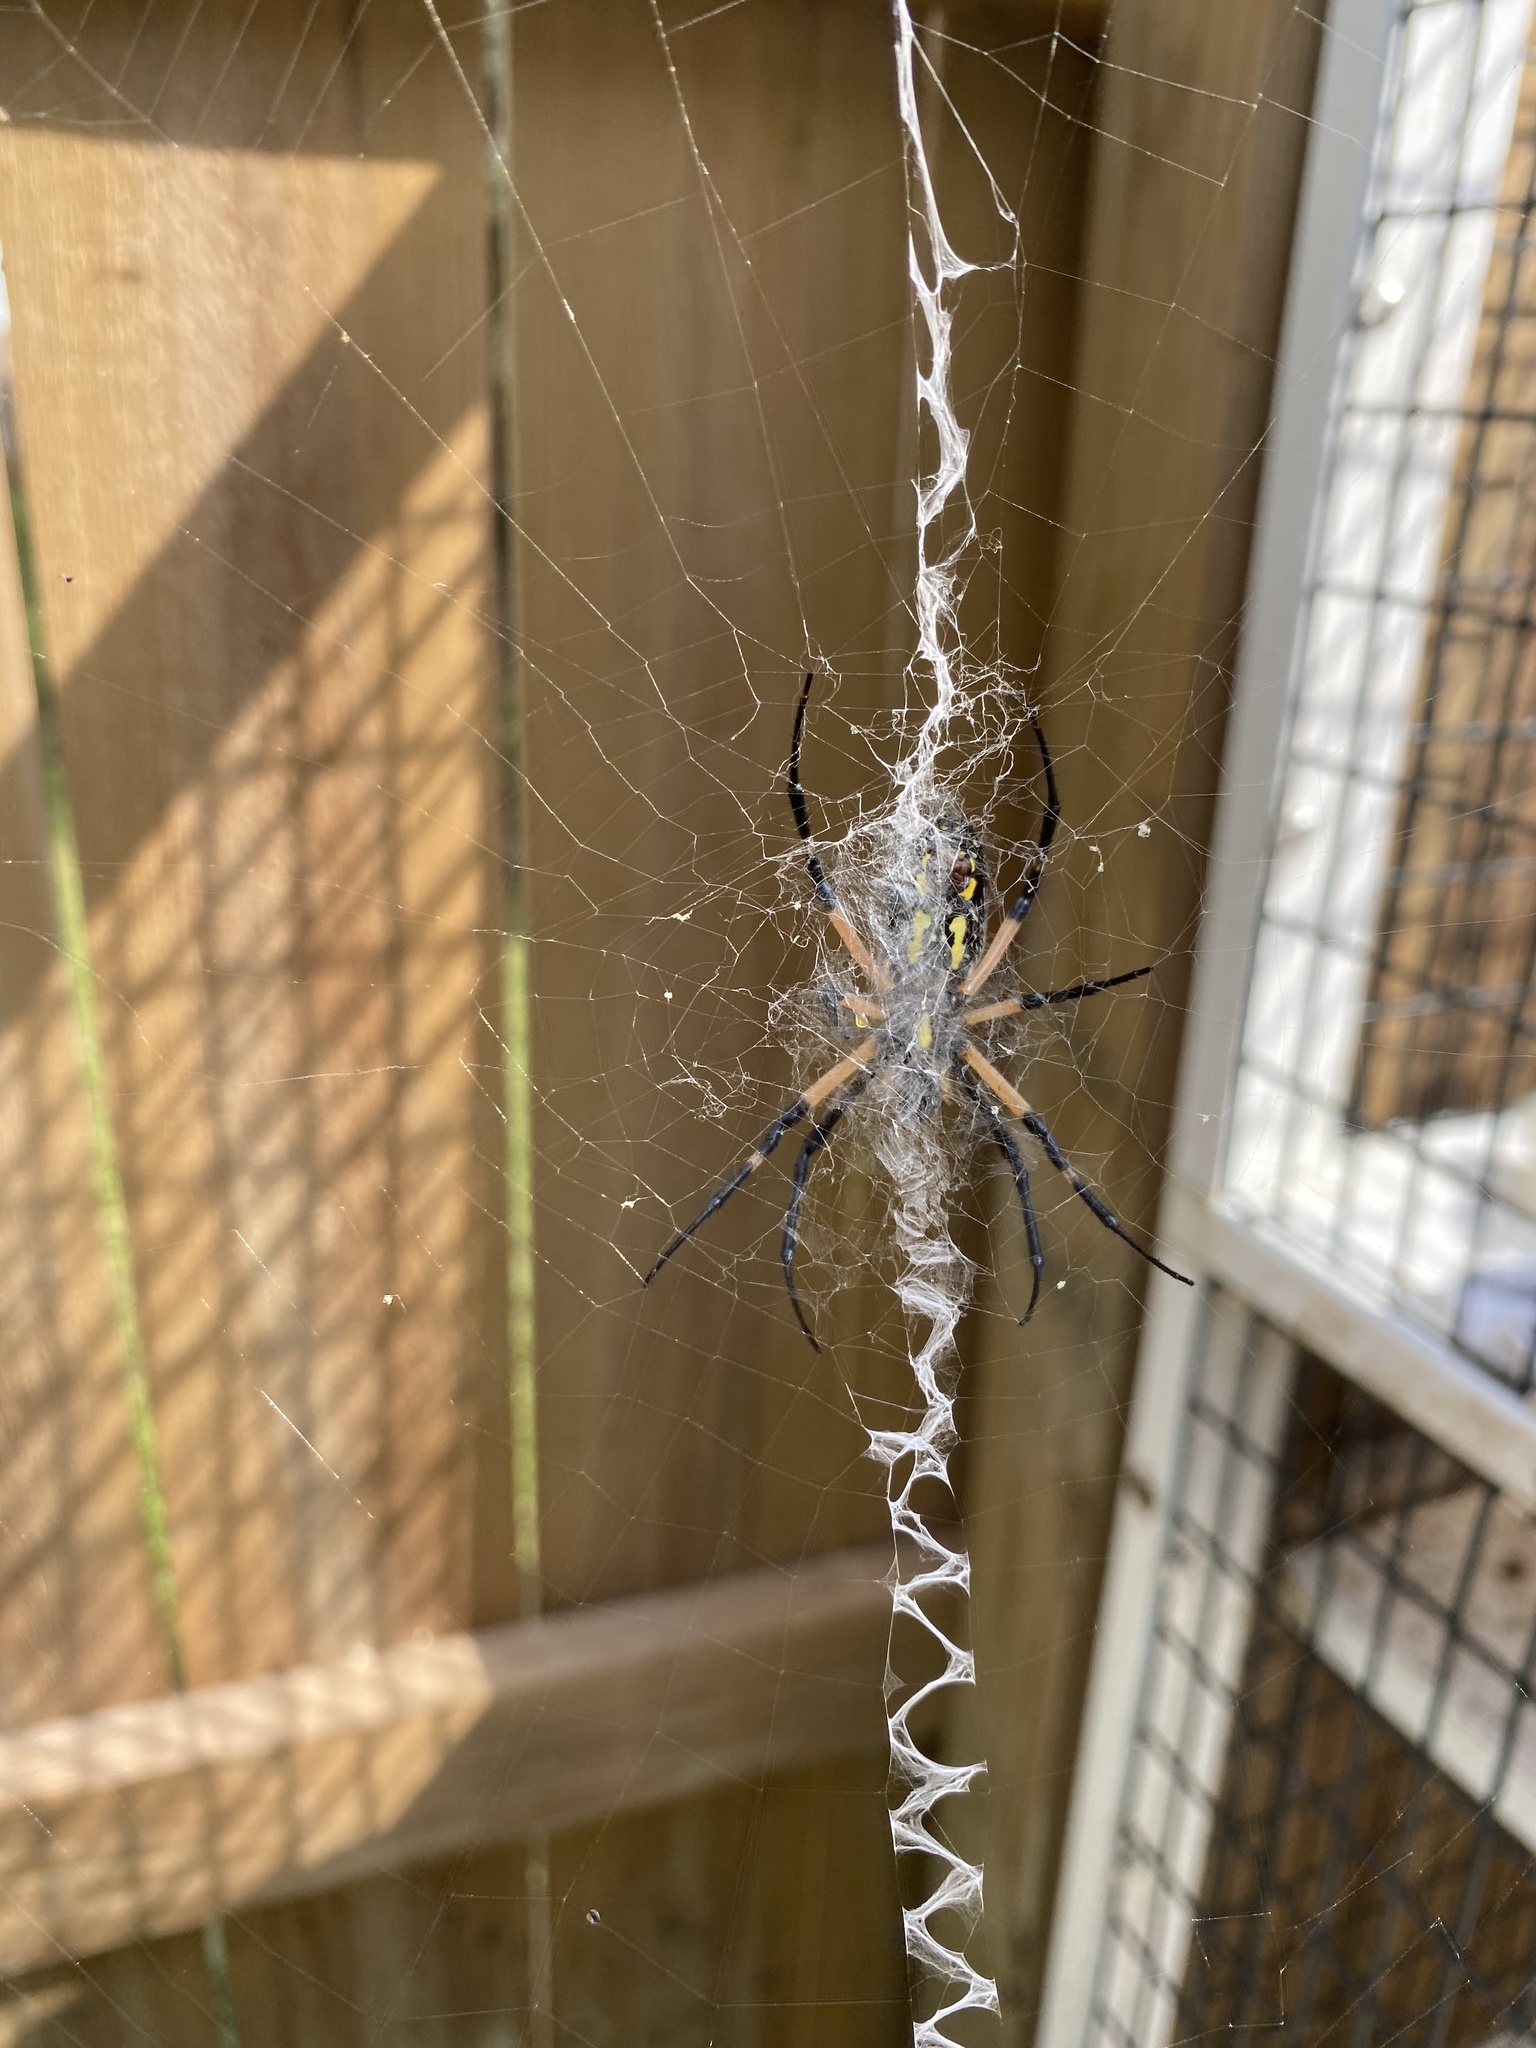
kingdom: Animalia
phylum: Arthropoda
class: Arachnida
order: Araneae
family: Araneidae
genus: Argiope
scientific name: Argiope aurantia
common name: Orb weavers
